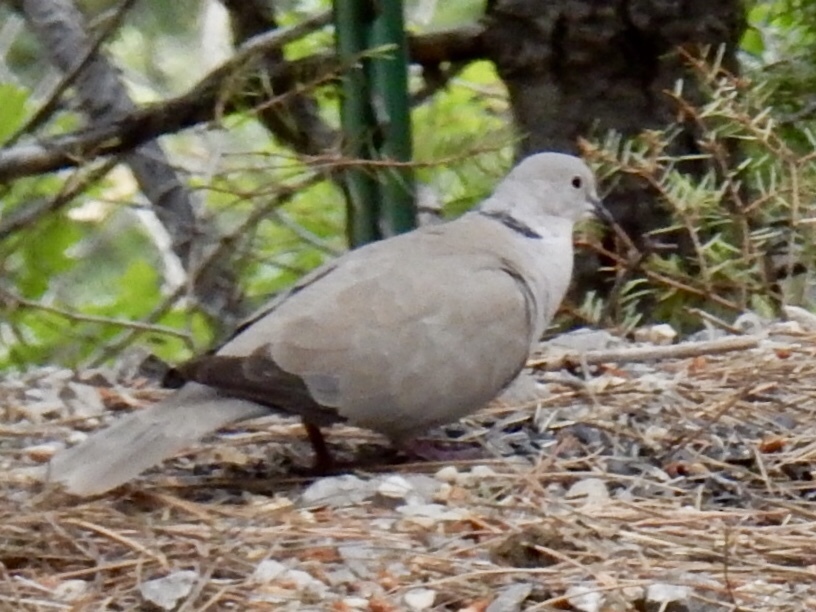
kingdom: Animalia
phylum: Chordata
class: Aves
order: Columbiformes
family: Columbidae
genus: Streptopelia
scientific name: Streptopelia decaocto
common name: Eurasian collared dove
